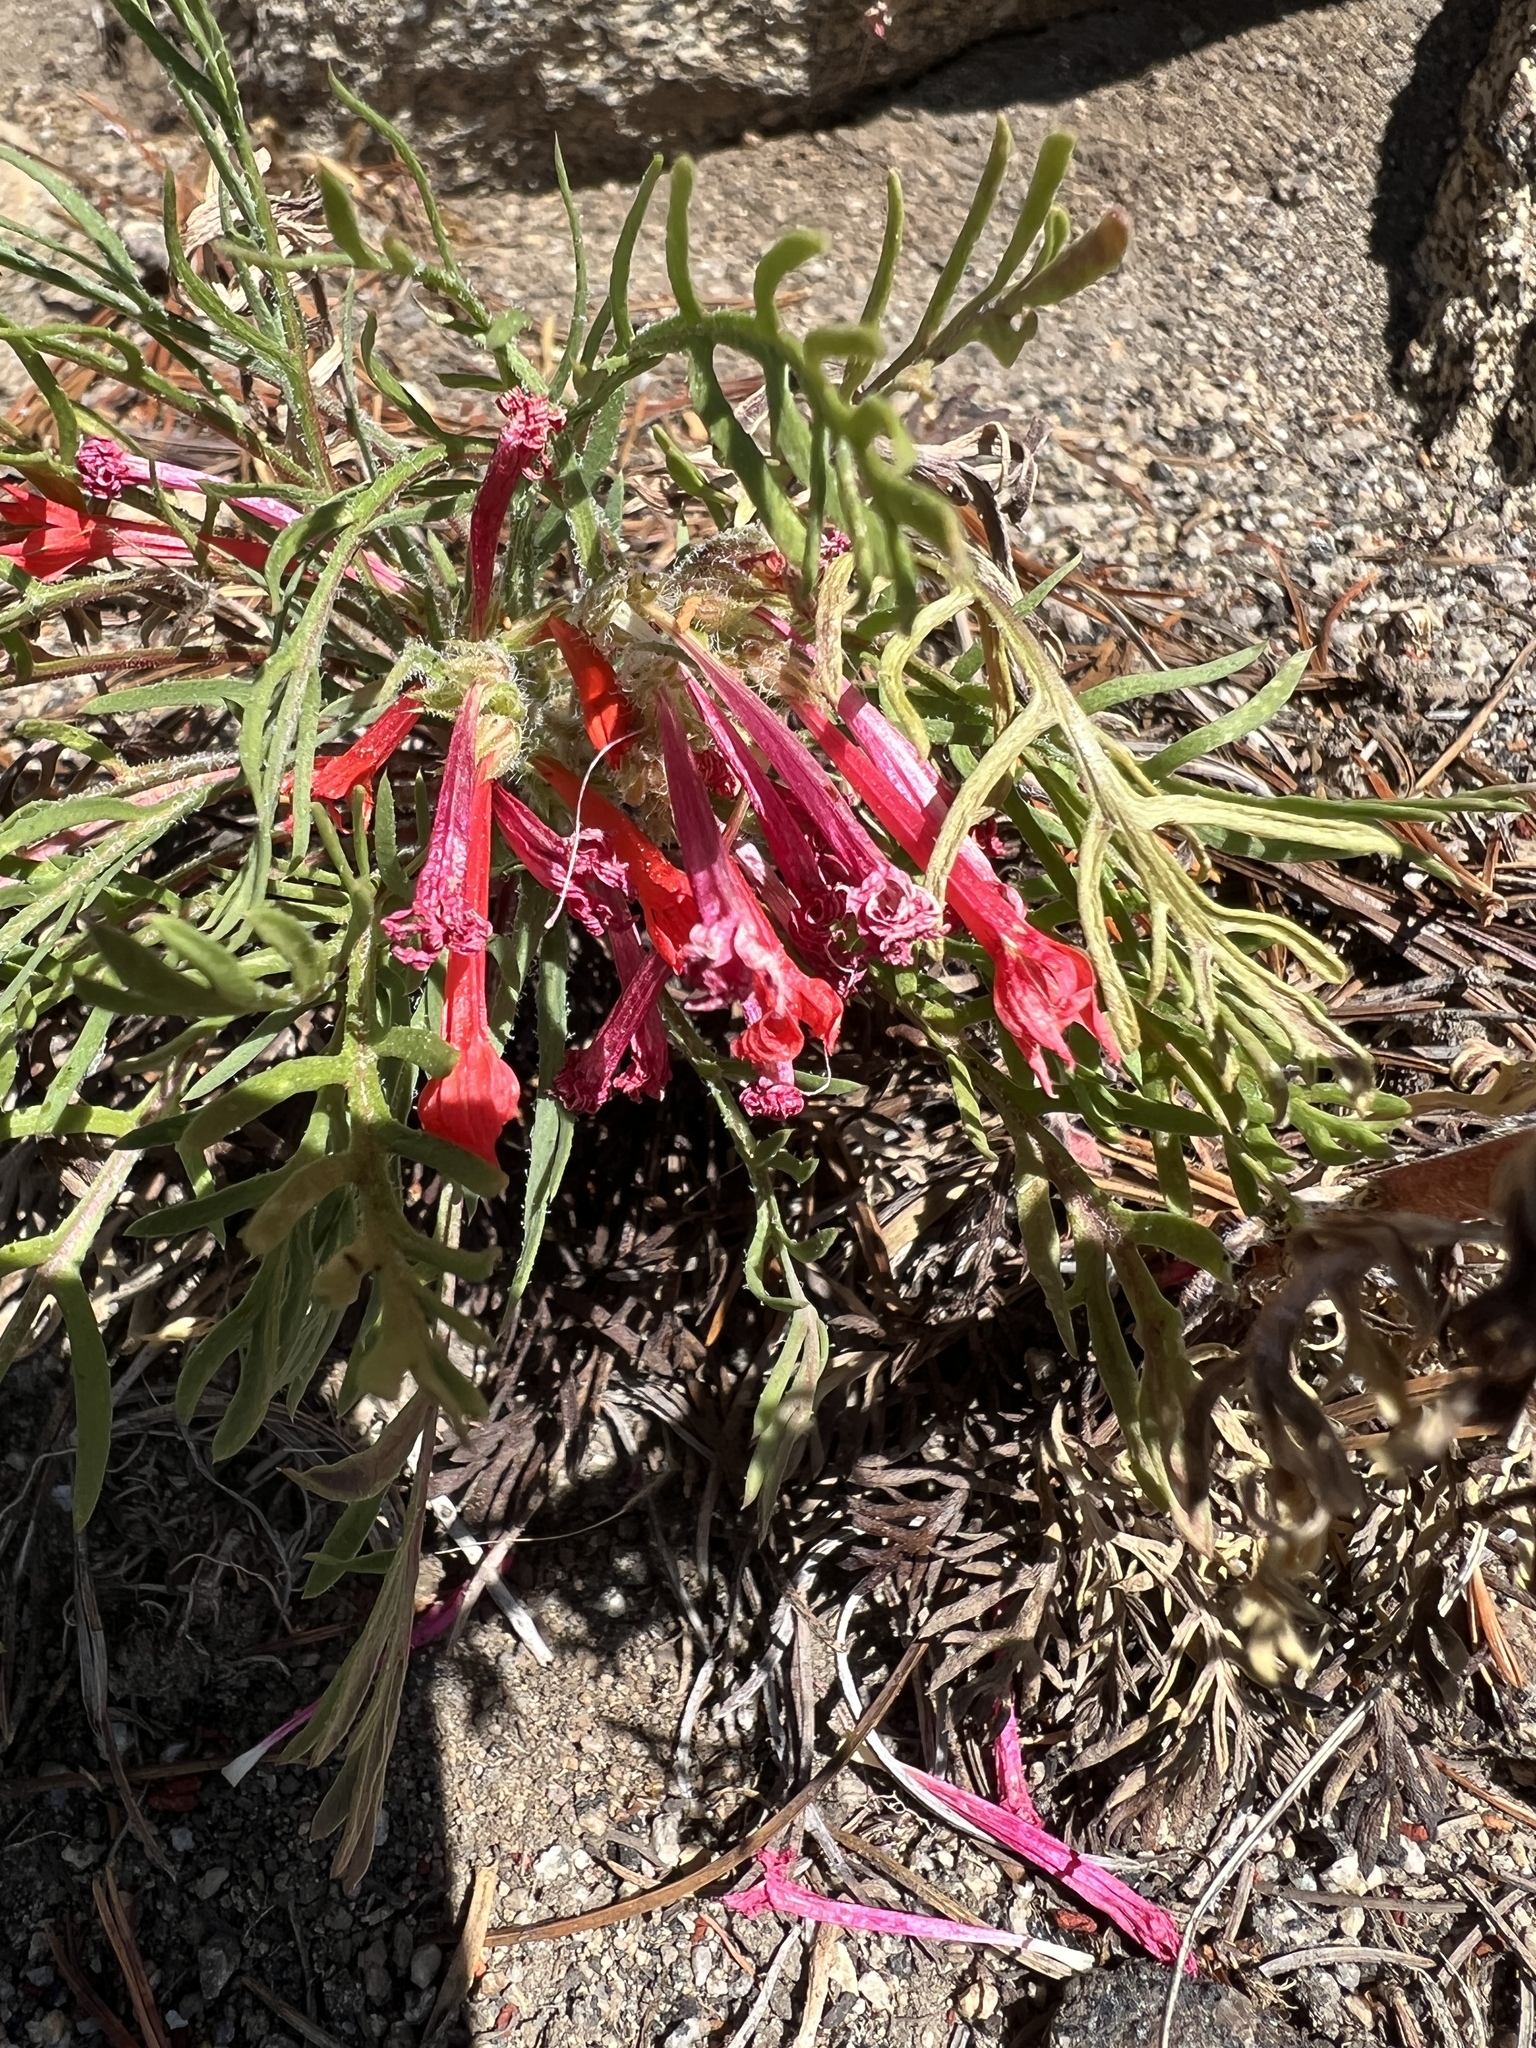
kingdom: Plantae
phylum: Tracheophyta
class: Magnoliopsida
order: Ericales
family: Polemoniaceae
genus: Ipomopsis
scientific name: Ipomopsis aggregata
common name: Scarlet gilia
